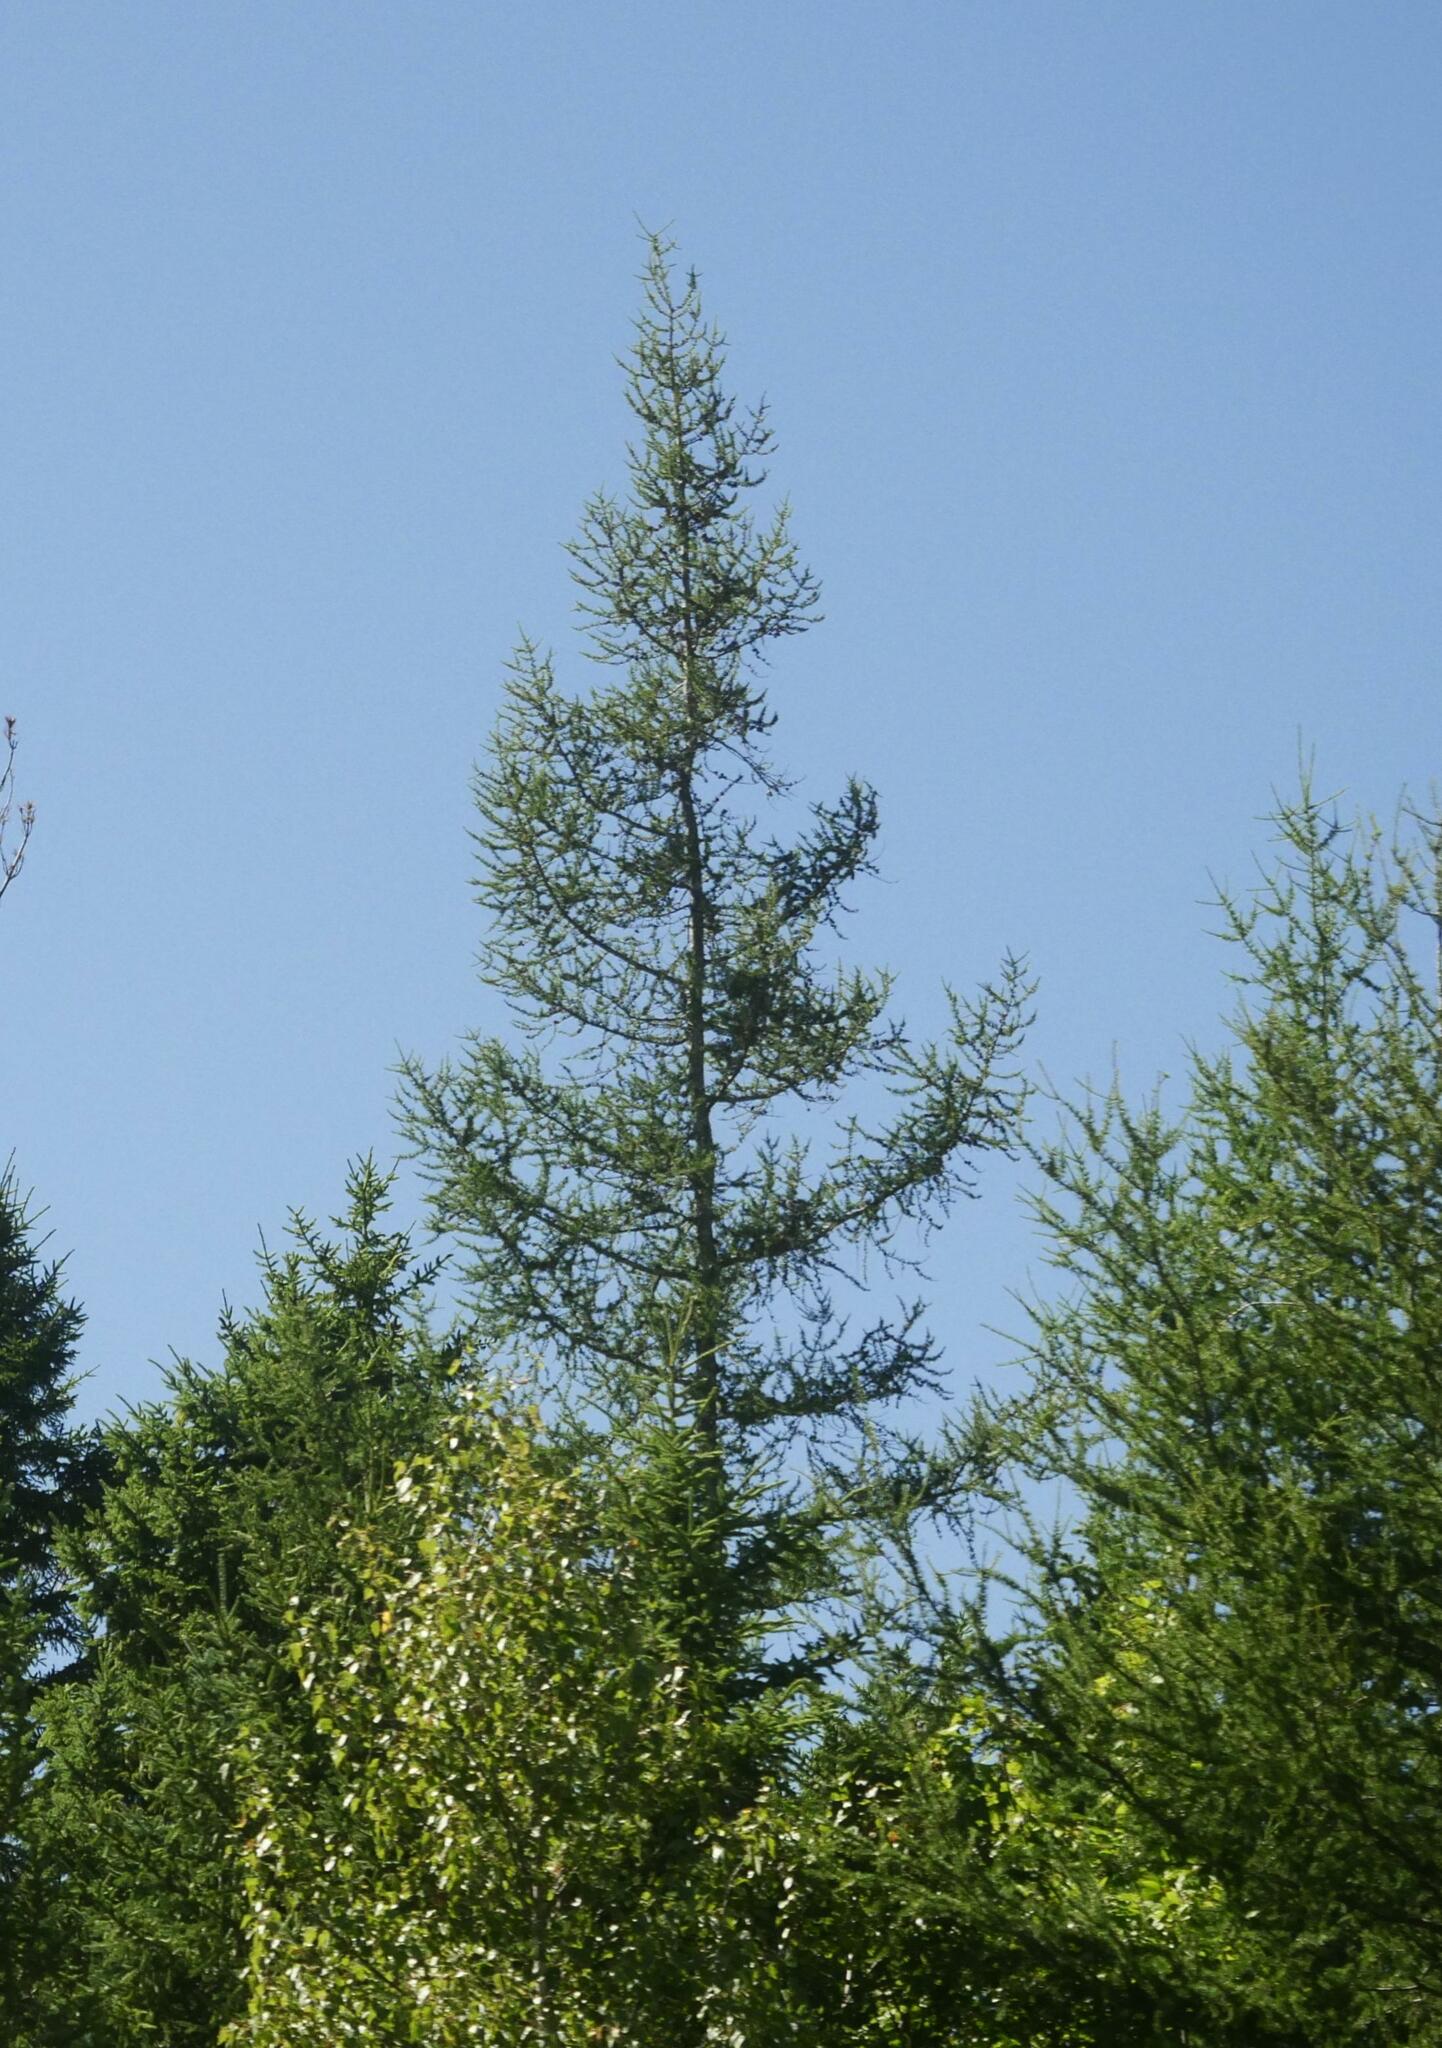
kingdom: Plantae
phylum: Tracheophyta
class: Pinopsida
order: Pinales
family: Pinaceae
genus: Larix
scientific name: Larix laricina
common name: American larch
